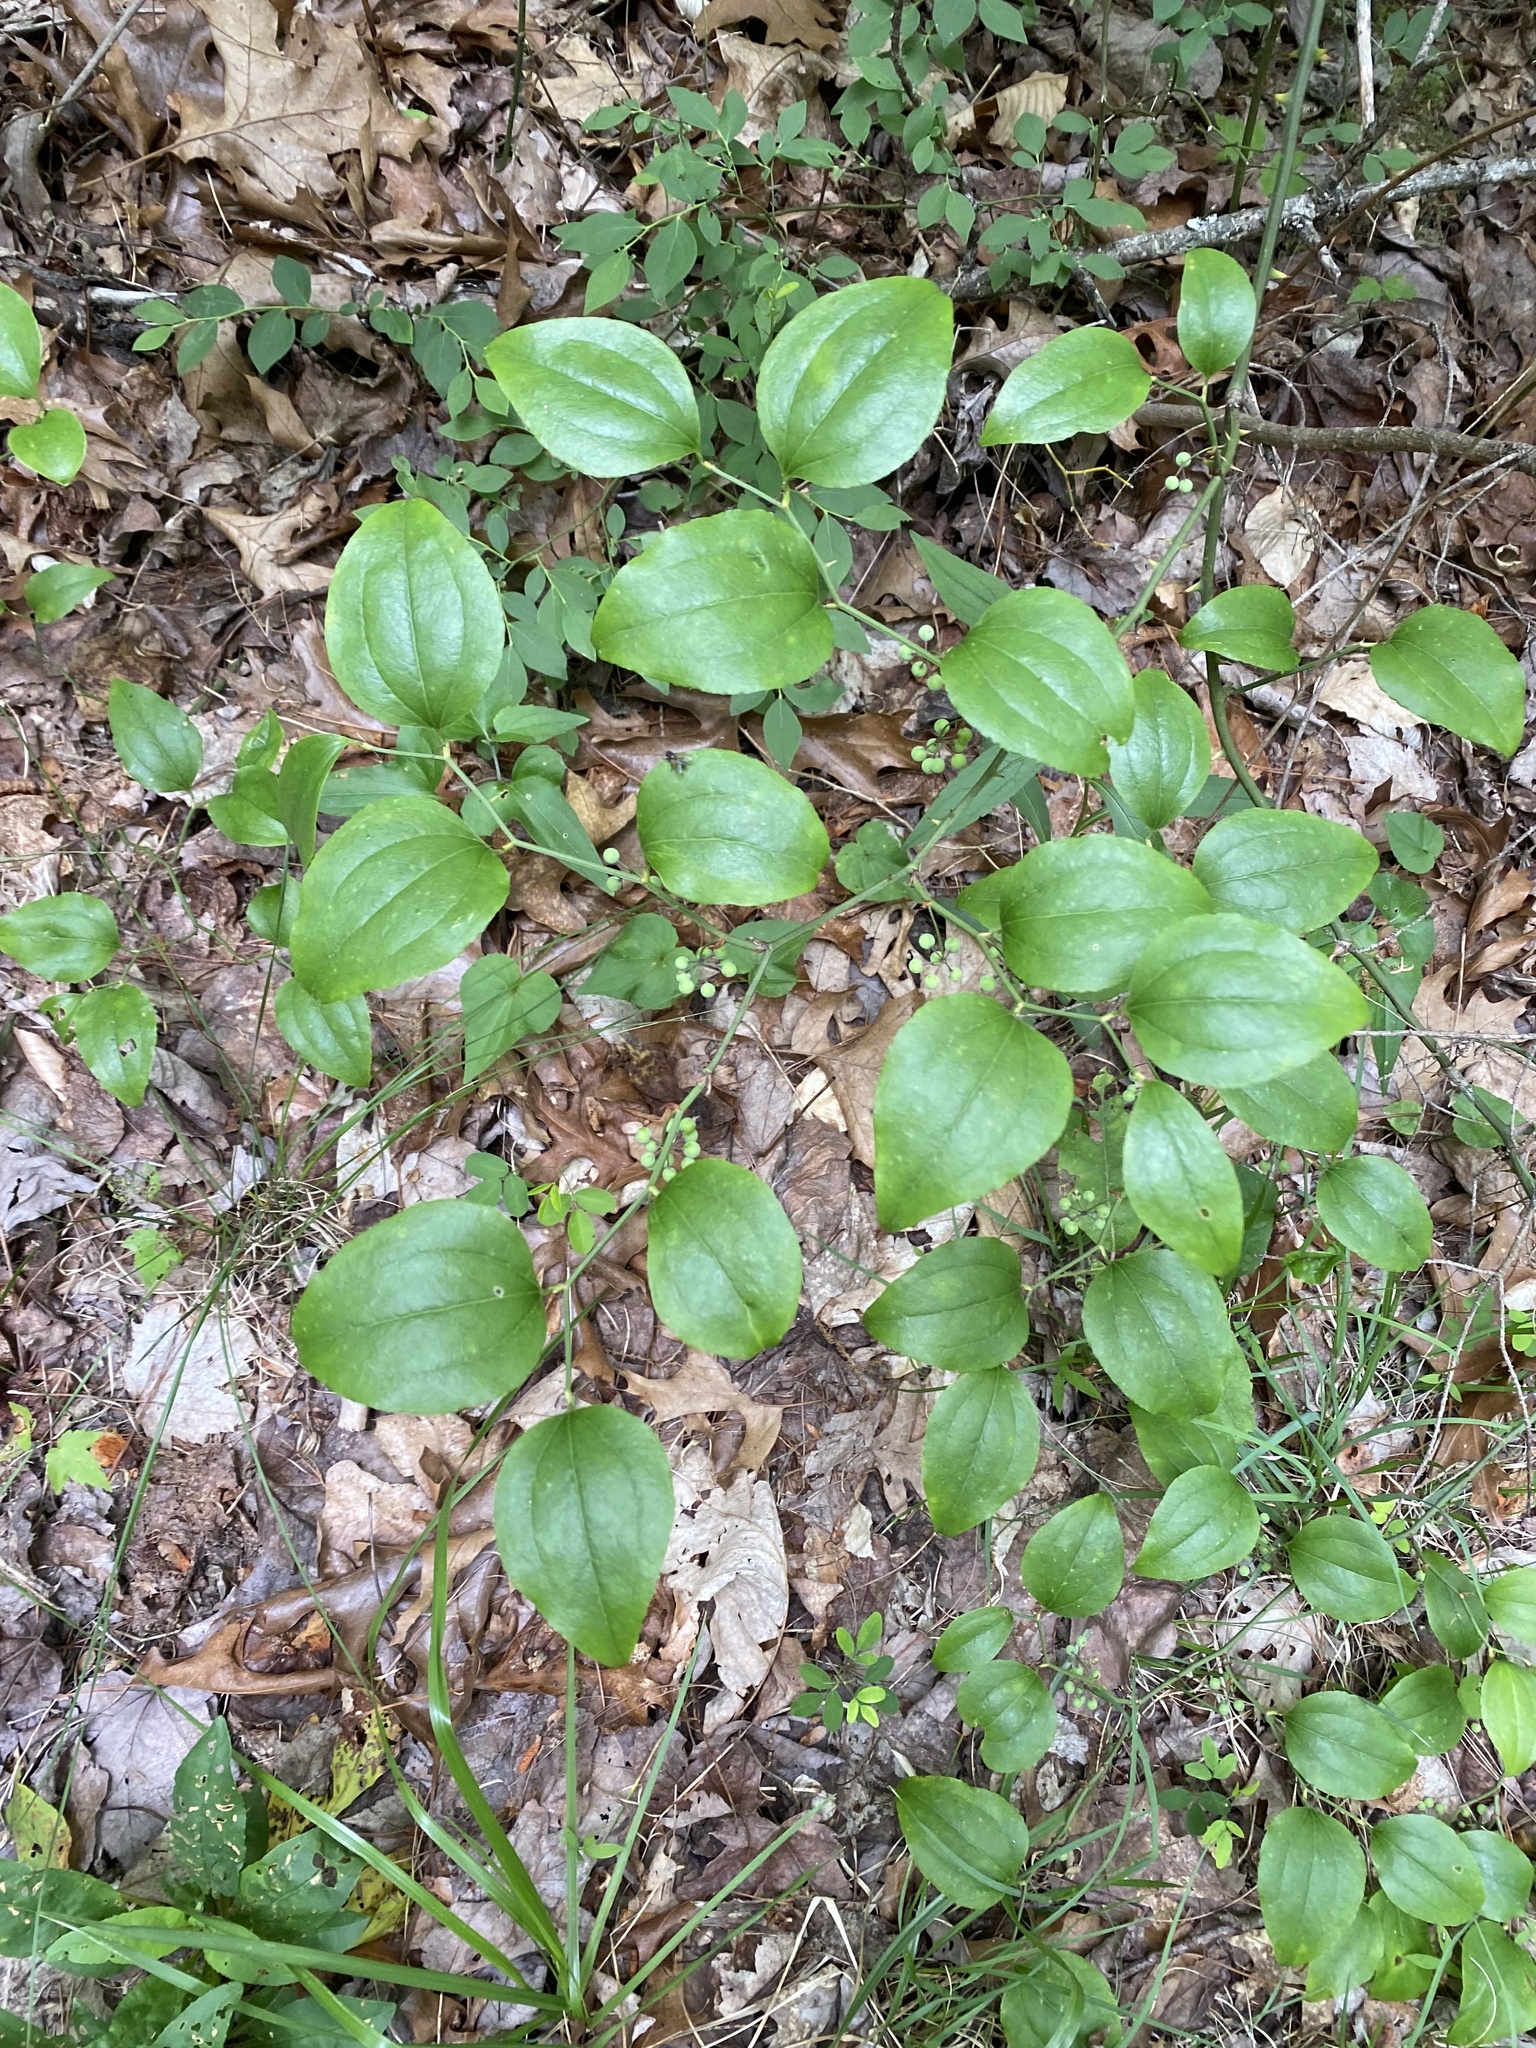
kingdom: Plantae
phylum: Tracheophyta
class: Liliopsida
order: Liliales
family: Smilacaceae
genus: Smilax
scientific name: Smilax rotundifolia
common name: Bullbriar
